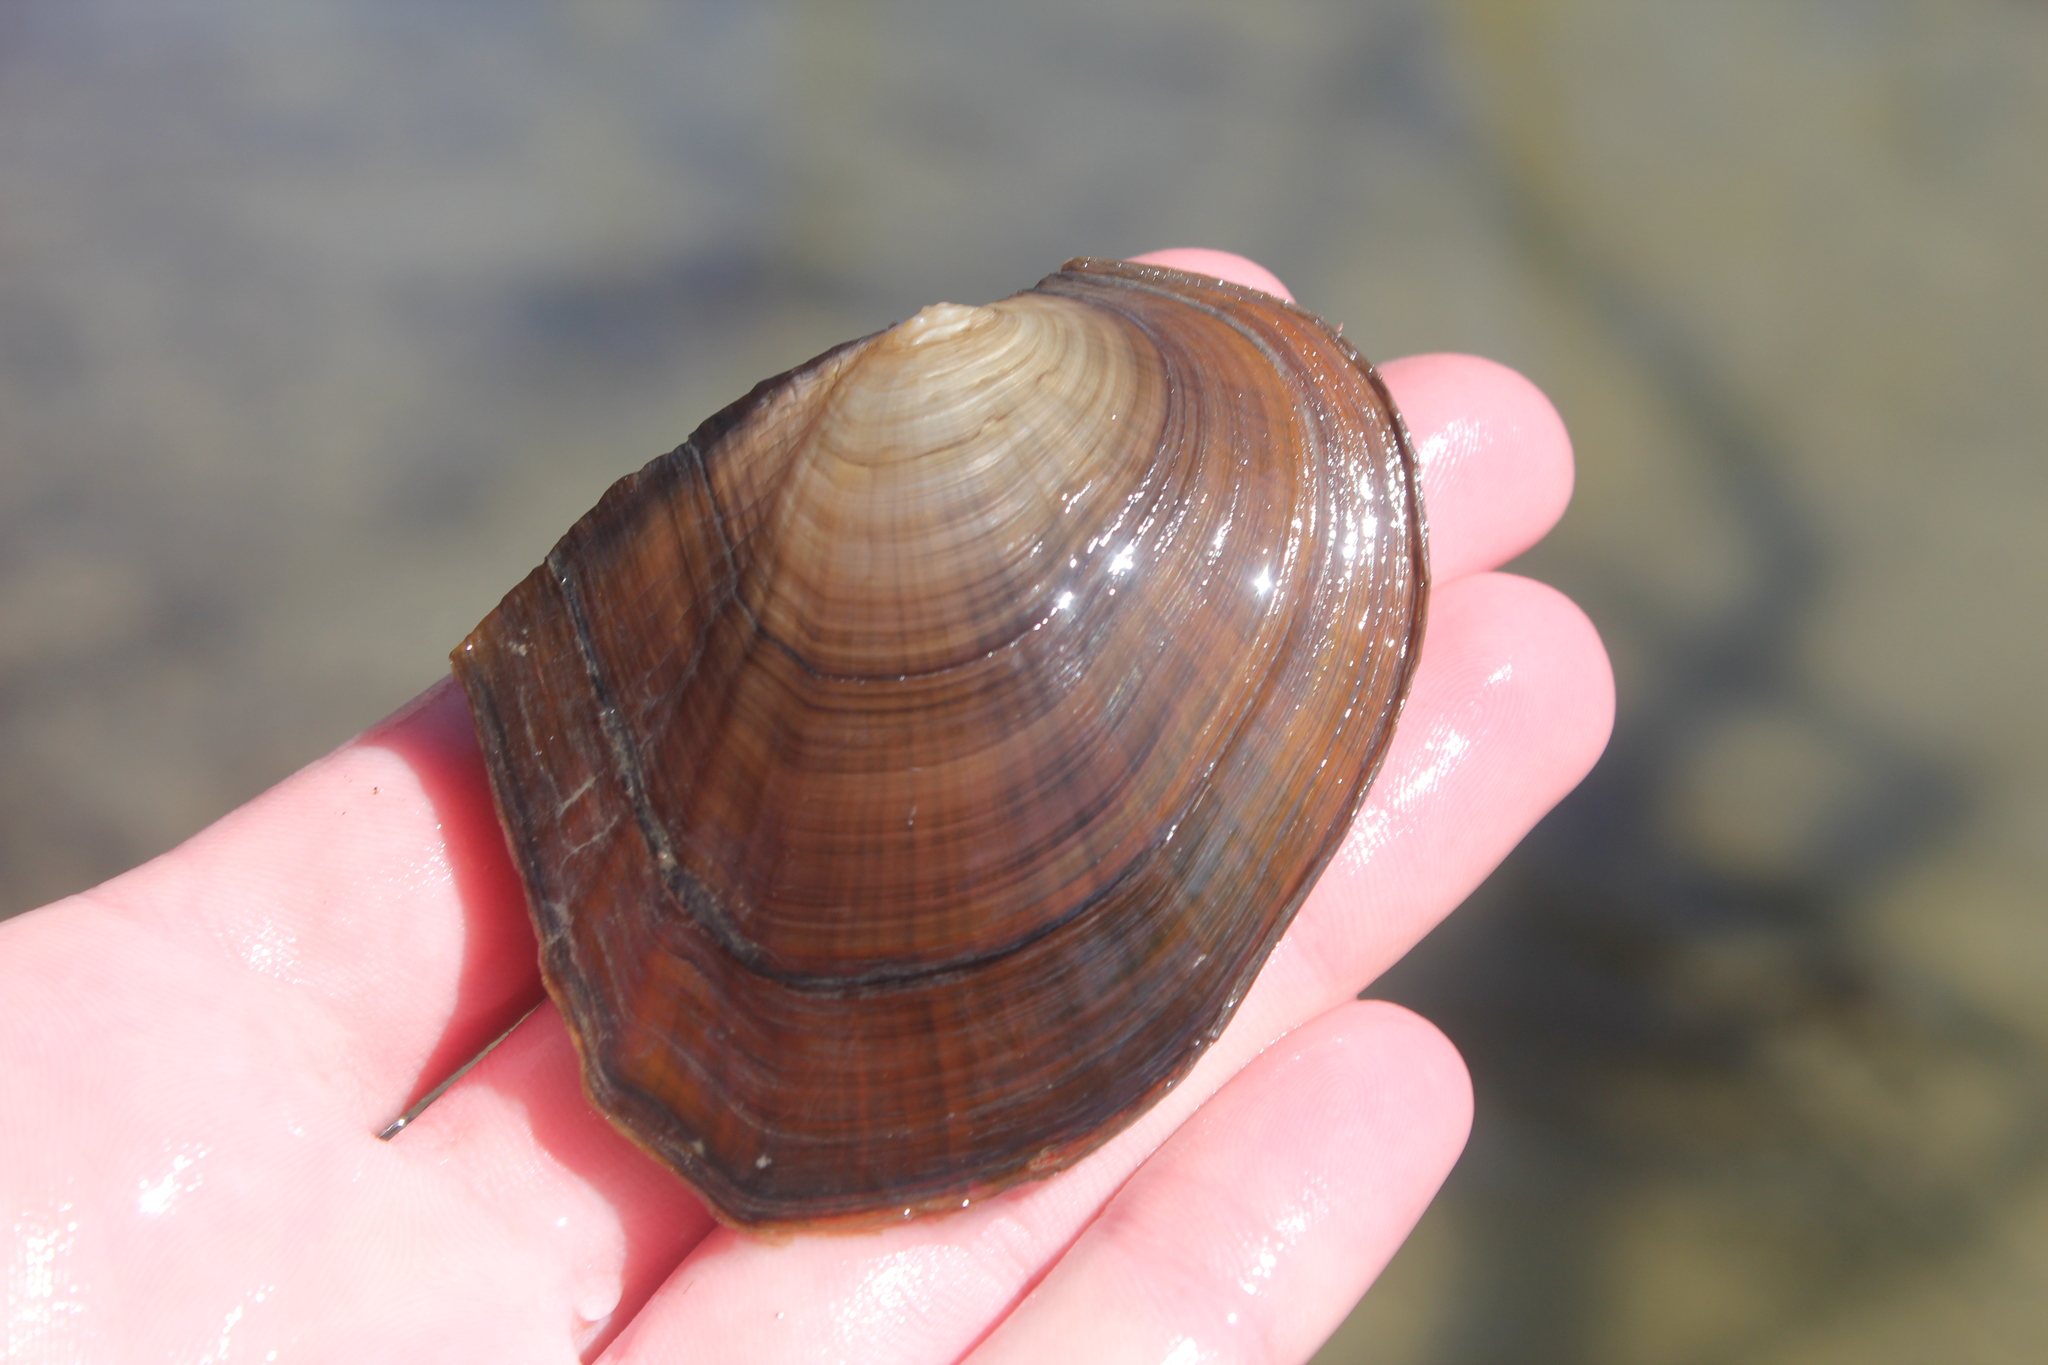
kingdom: Animalia
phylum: Mollusca
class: Bivalvia
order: Unionida
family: Unionidae
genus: Lasmigona
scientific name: Lasmigona complanata
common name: White heelsplitter
